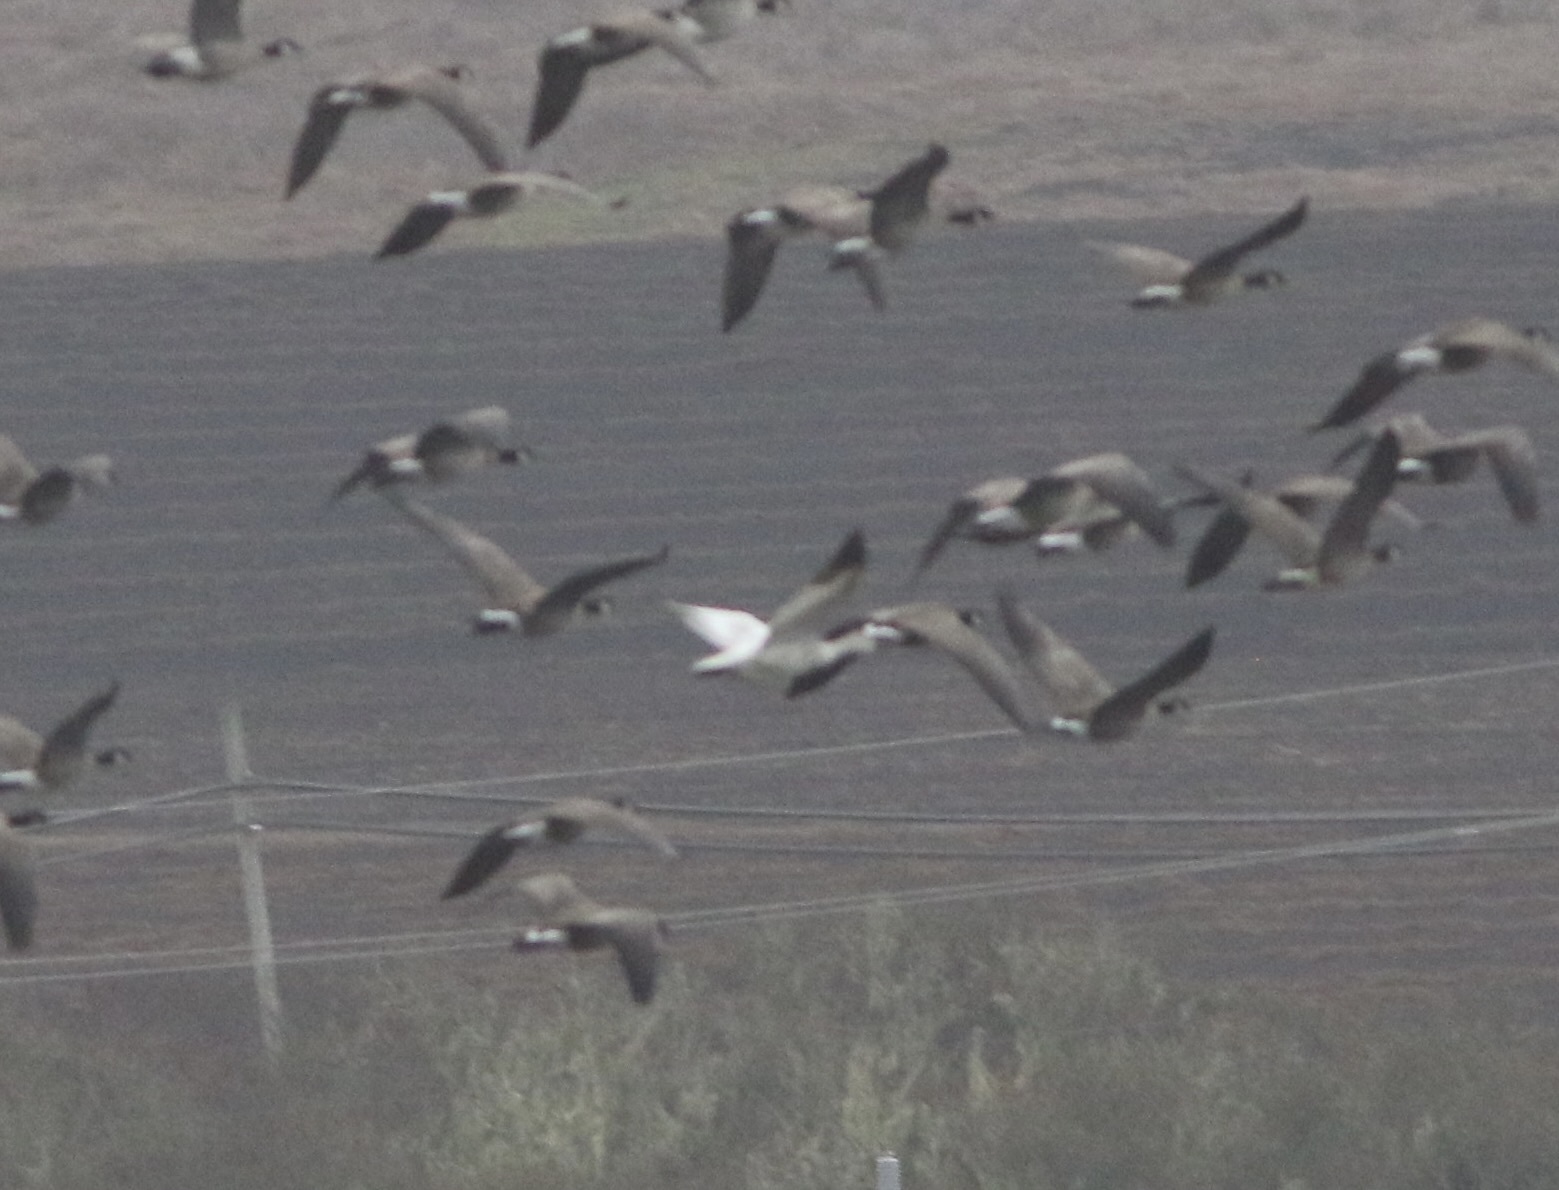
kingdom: Animalia
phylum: Chordata
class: Aves
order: Anseriformes
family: Anatidae
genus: Anser
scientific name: Anser caerulescens
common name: Snow goose
